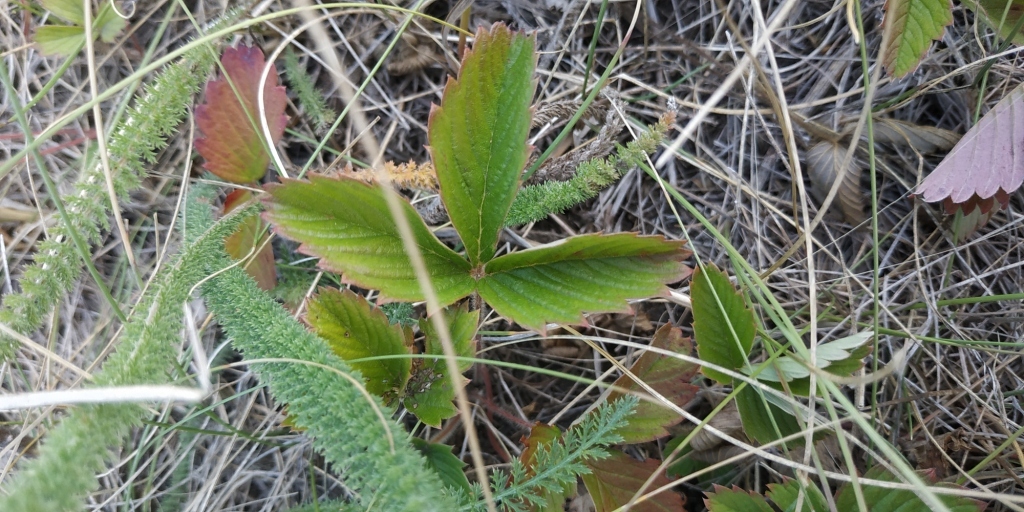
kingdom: Plantae
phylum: Tracheophyta
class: Magnoliopsida
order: Rosales
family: Rosaceae
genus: Fragaria
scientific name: Fragaria viridis
